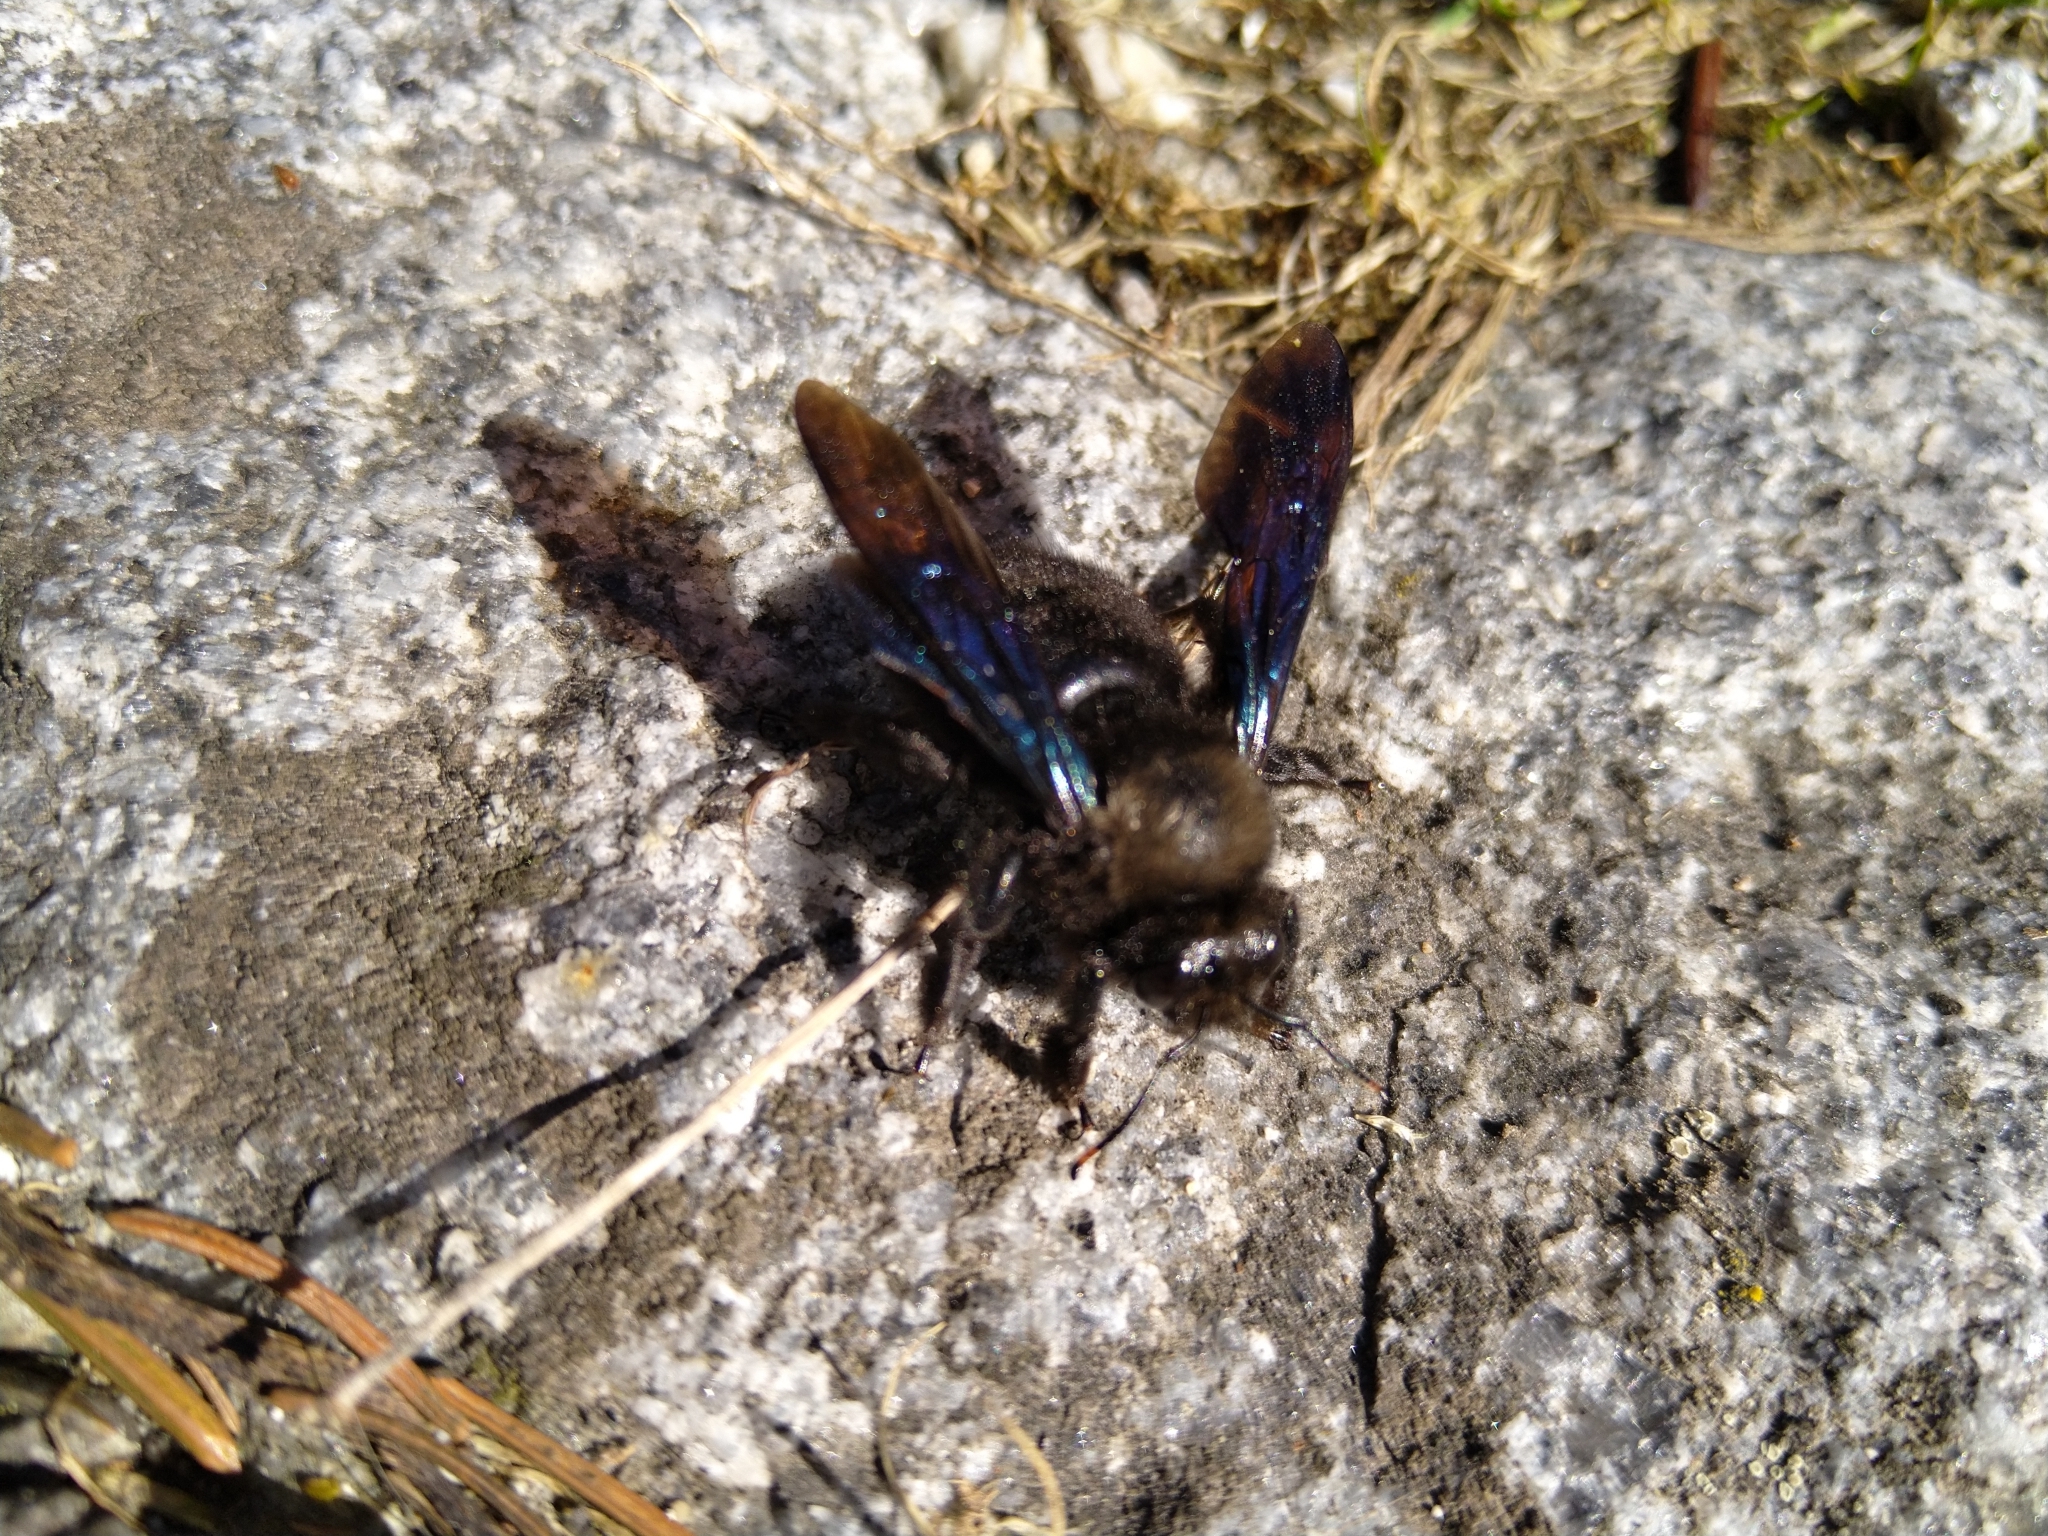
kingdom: Animalia
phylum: Arthropoda
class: Insecta
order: Hymenoptera
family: Apidae
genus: Xylocopa
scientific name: Xylocopa violacea
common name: Violet carpenter bee
